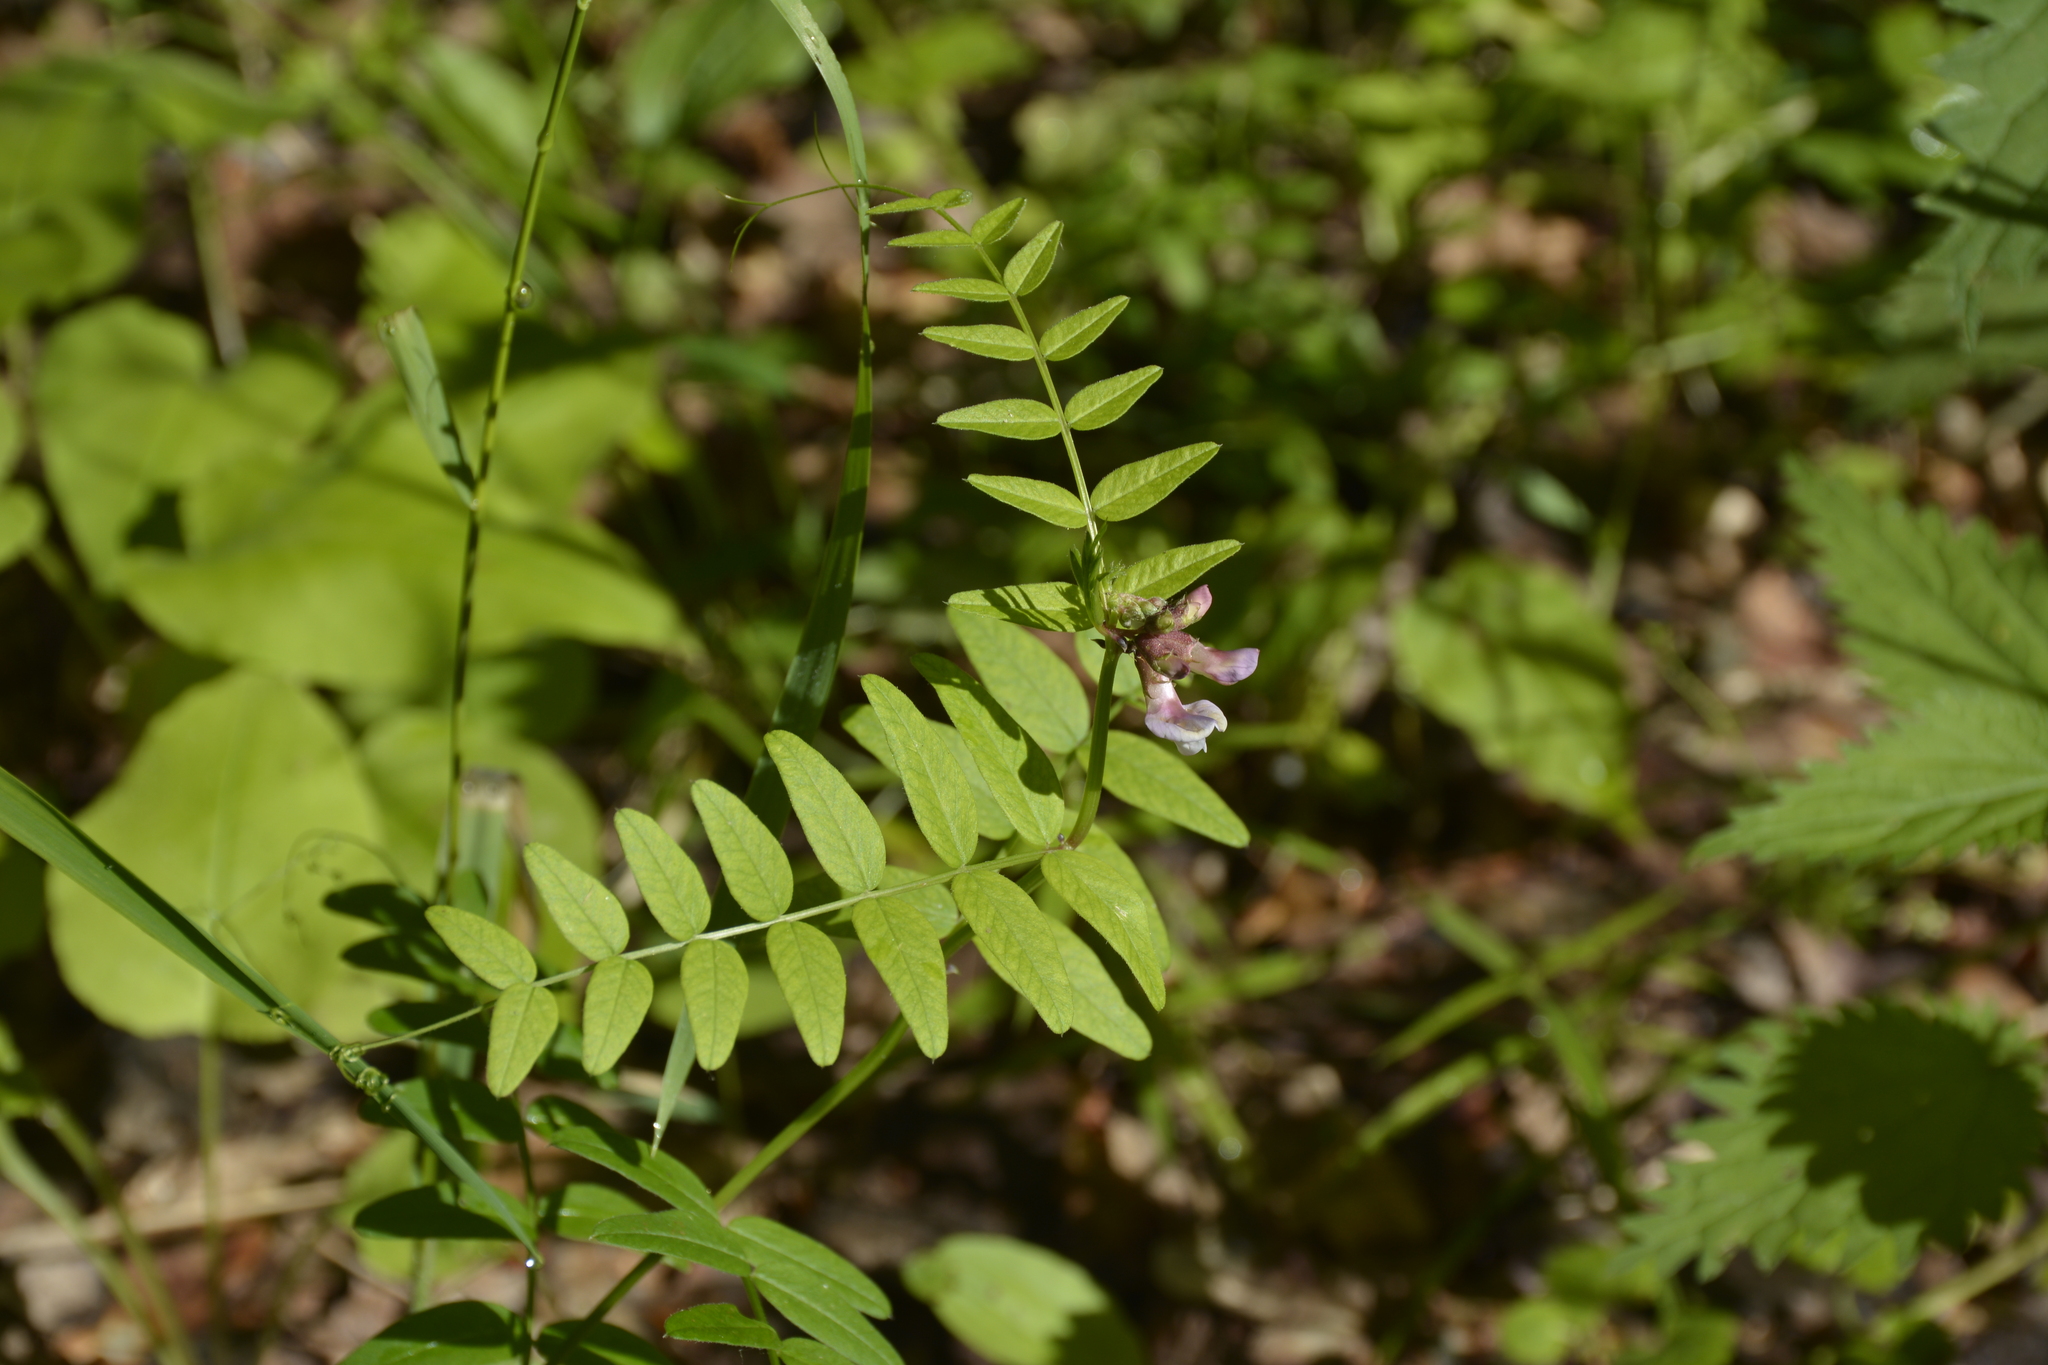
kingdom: Plantae
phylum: Tracheophyta
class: Magnoliopsida
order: Fabales
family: Fabaceae
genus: Vicia
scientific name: Vicia sepium
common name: Bush vetch
